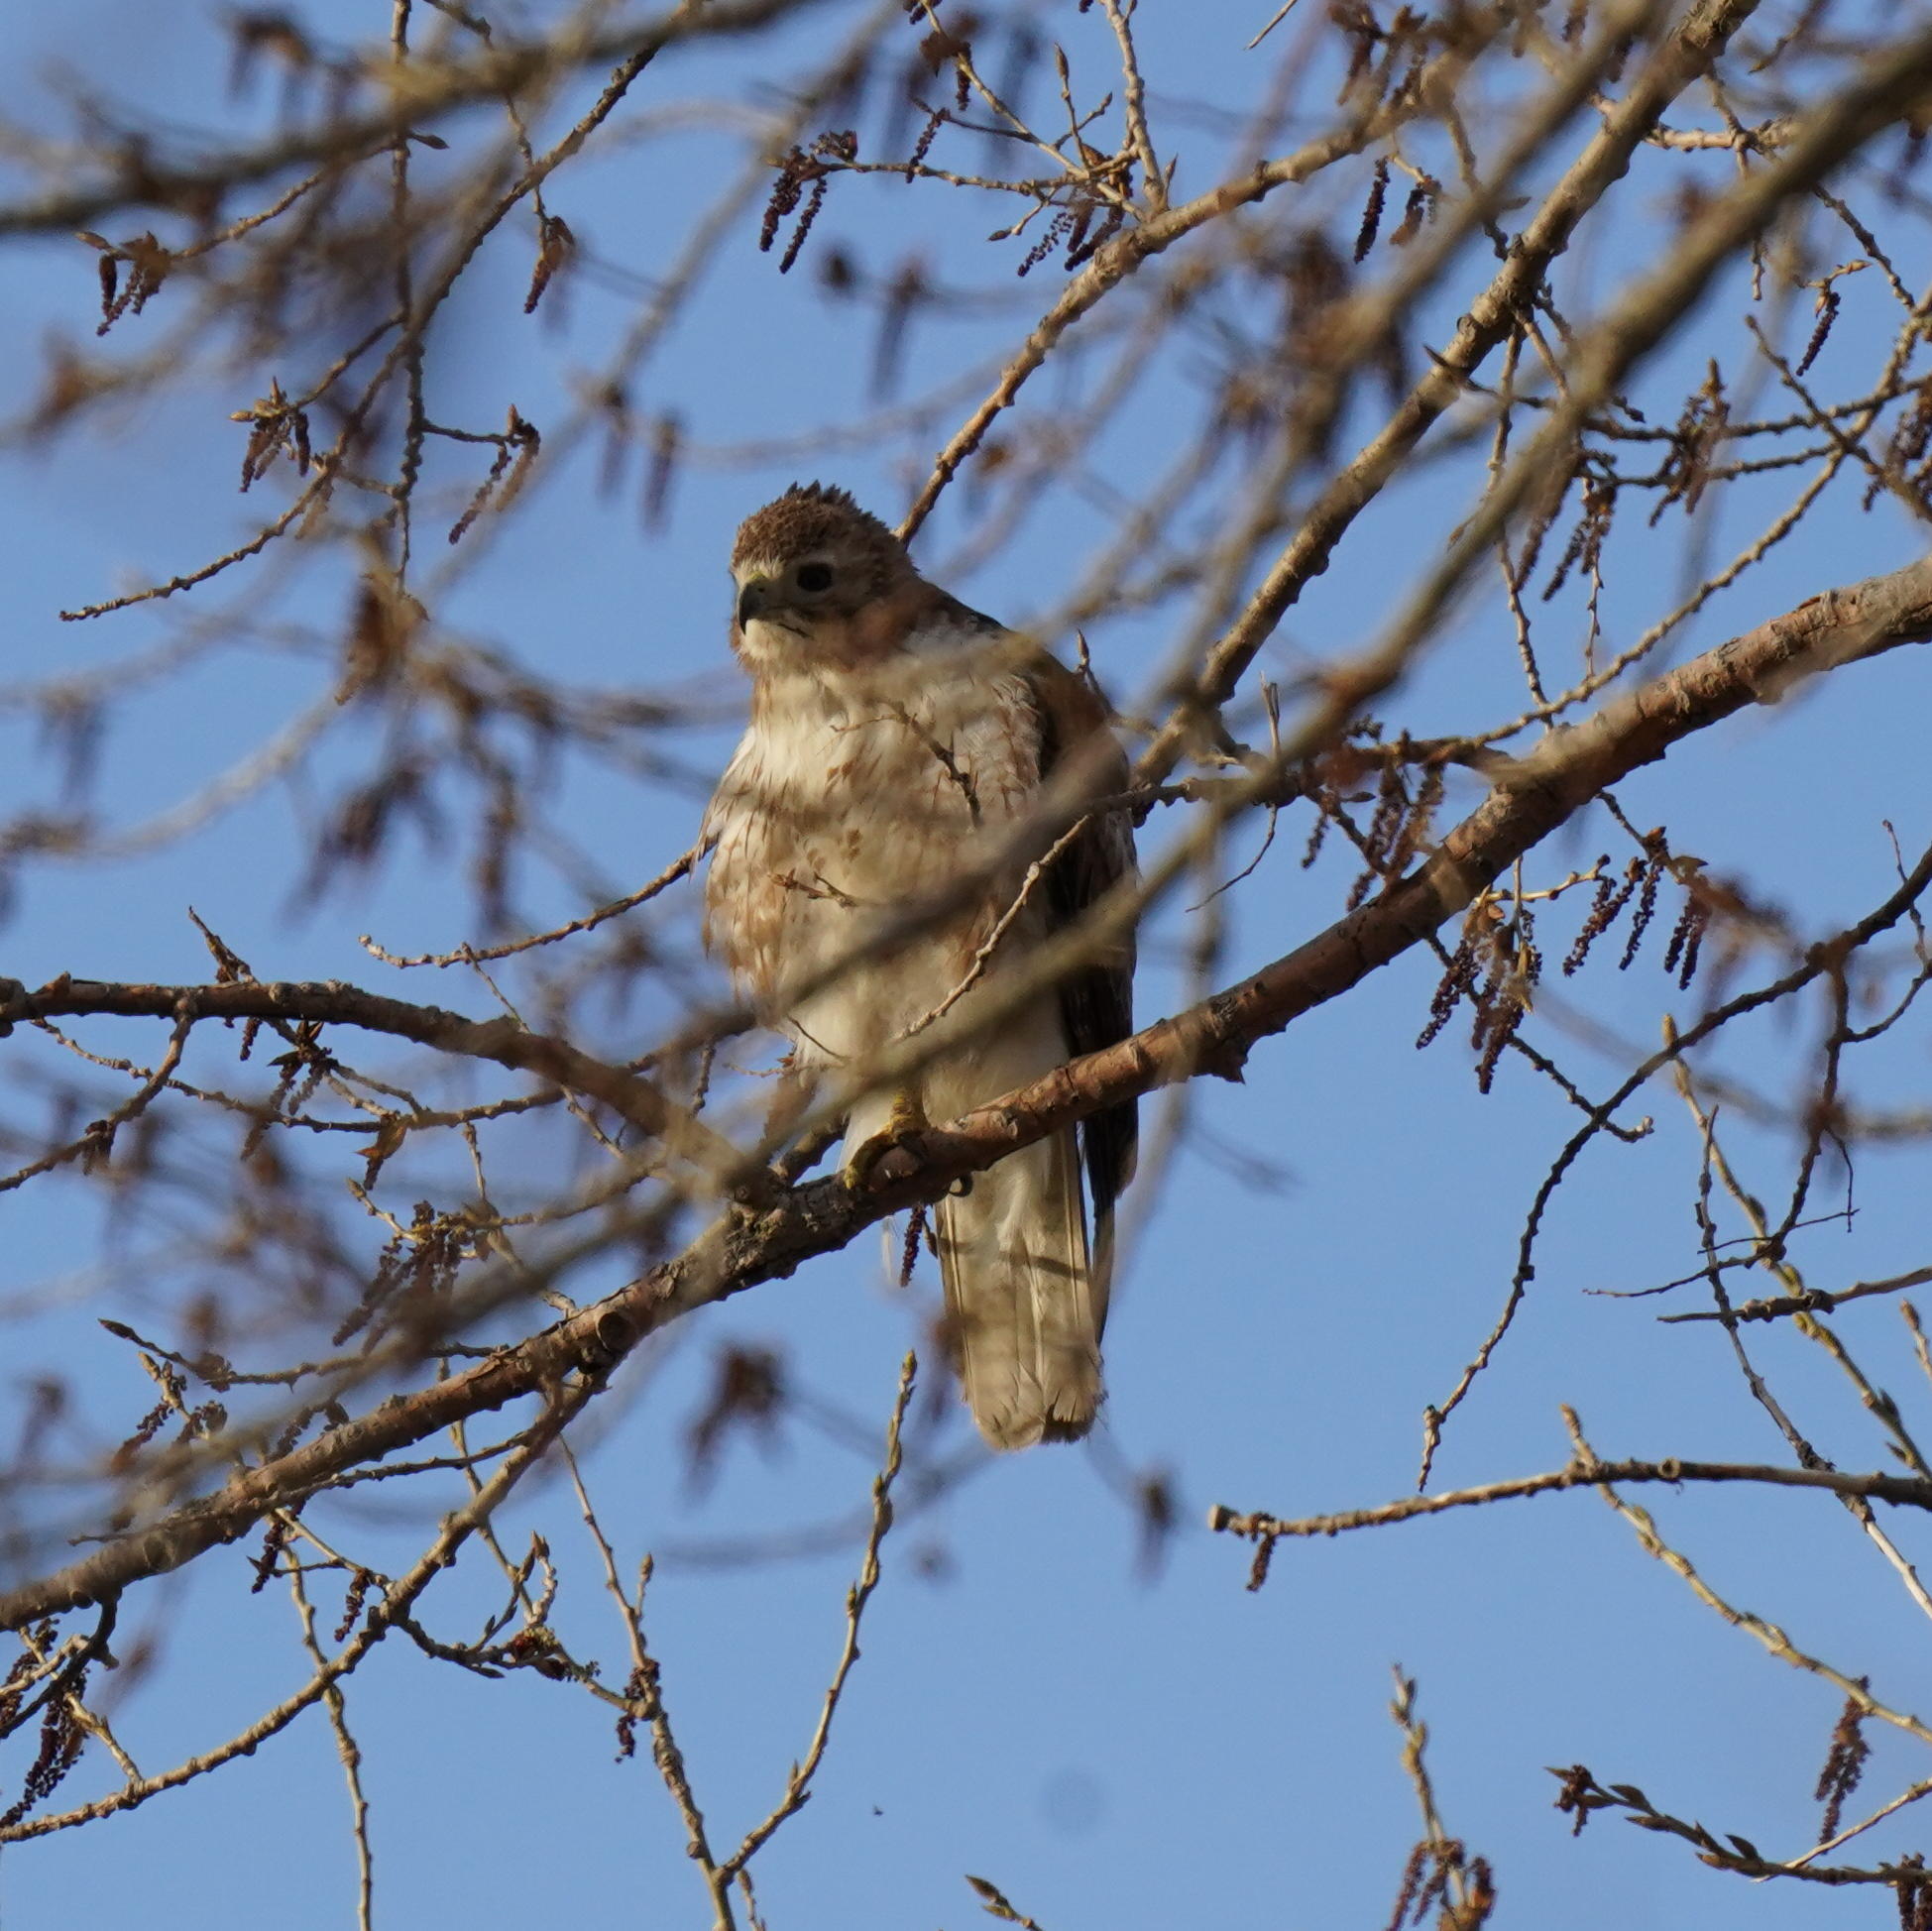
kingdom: Animalia
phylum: Chordata
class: Aves
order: Accipitriformes
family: Accipitridae
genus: Buteo
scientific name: Buteo jamaicensis
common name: Red-tailed hawk
